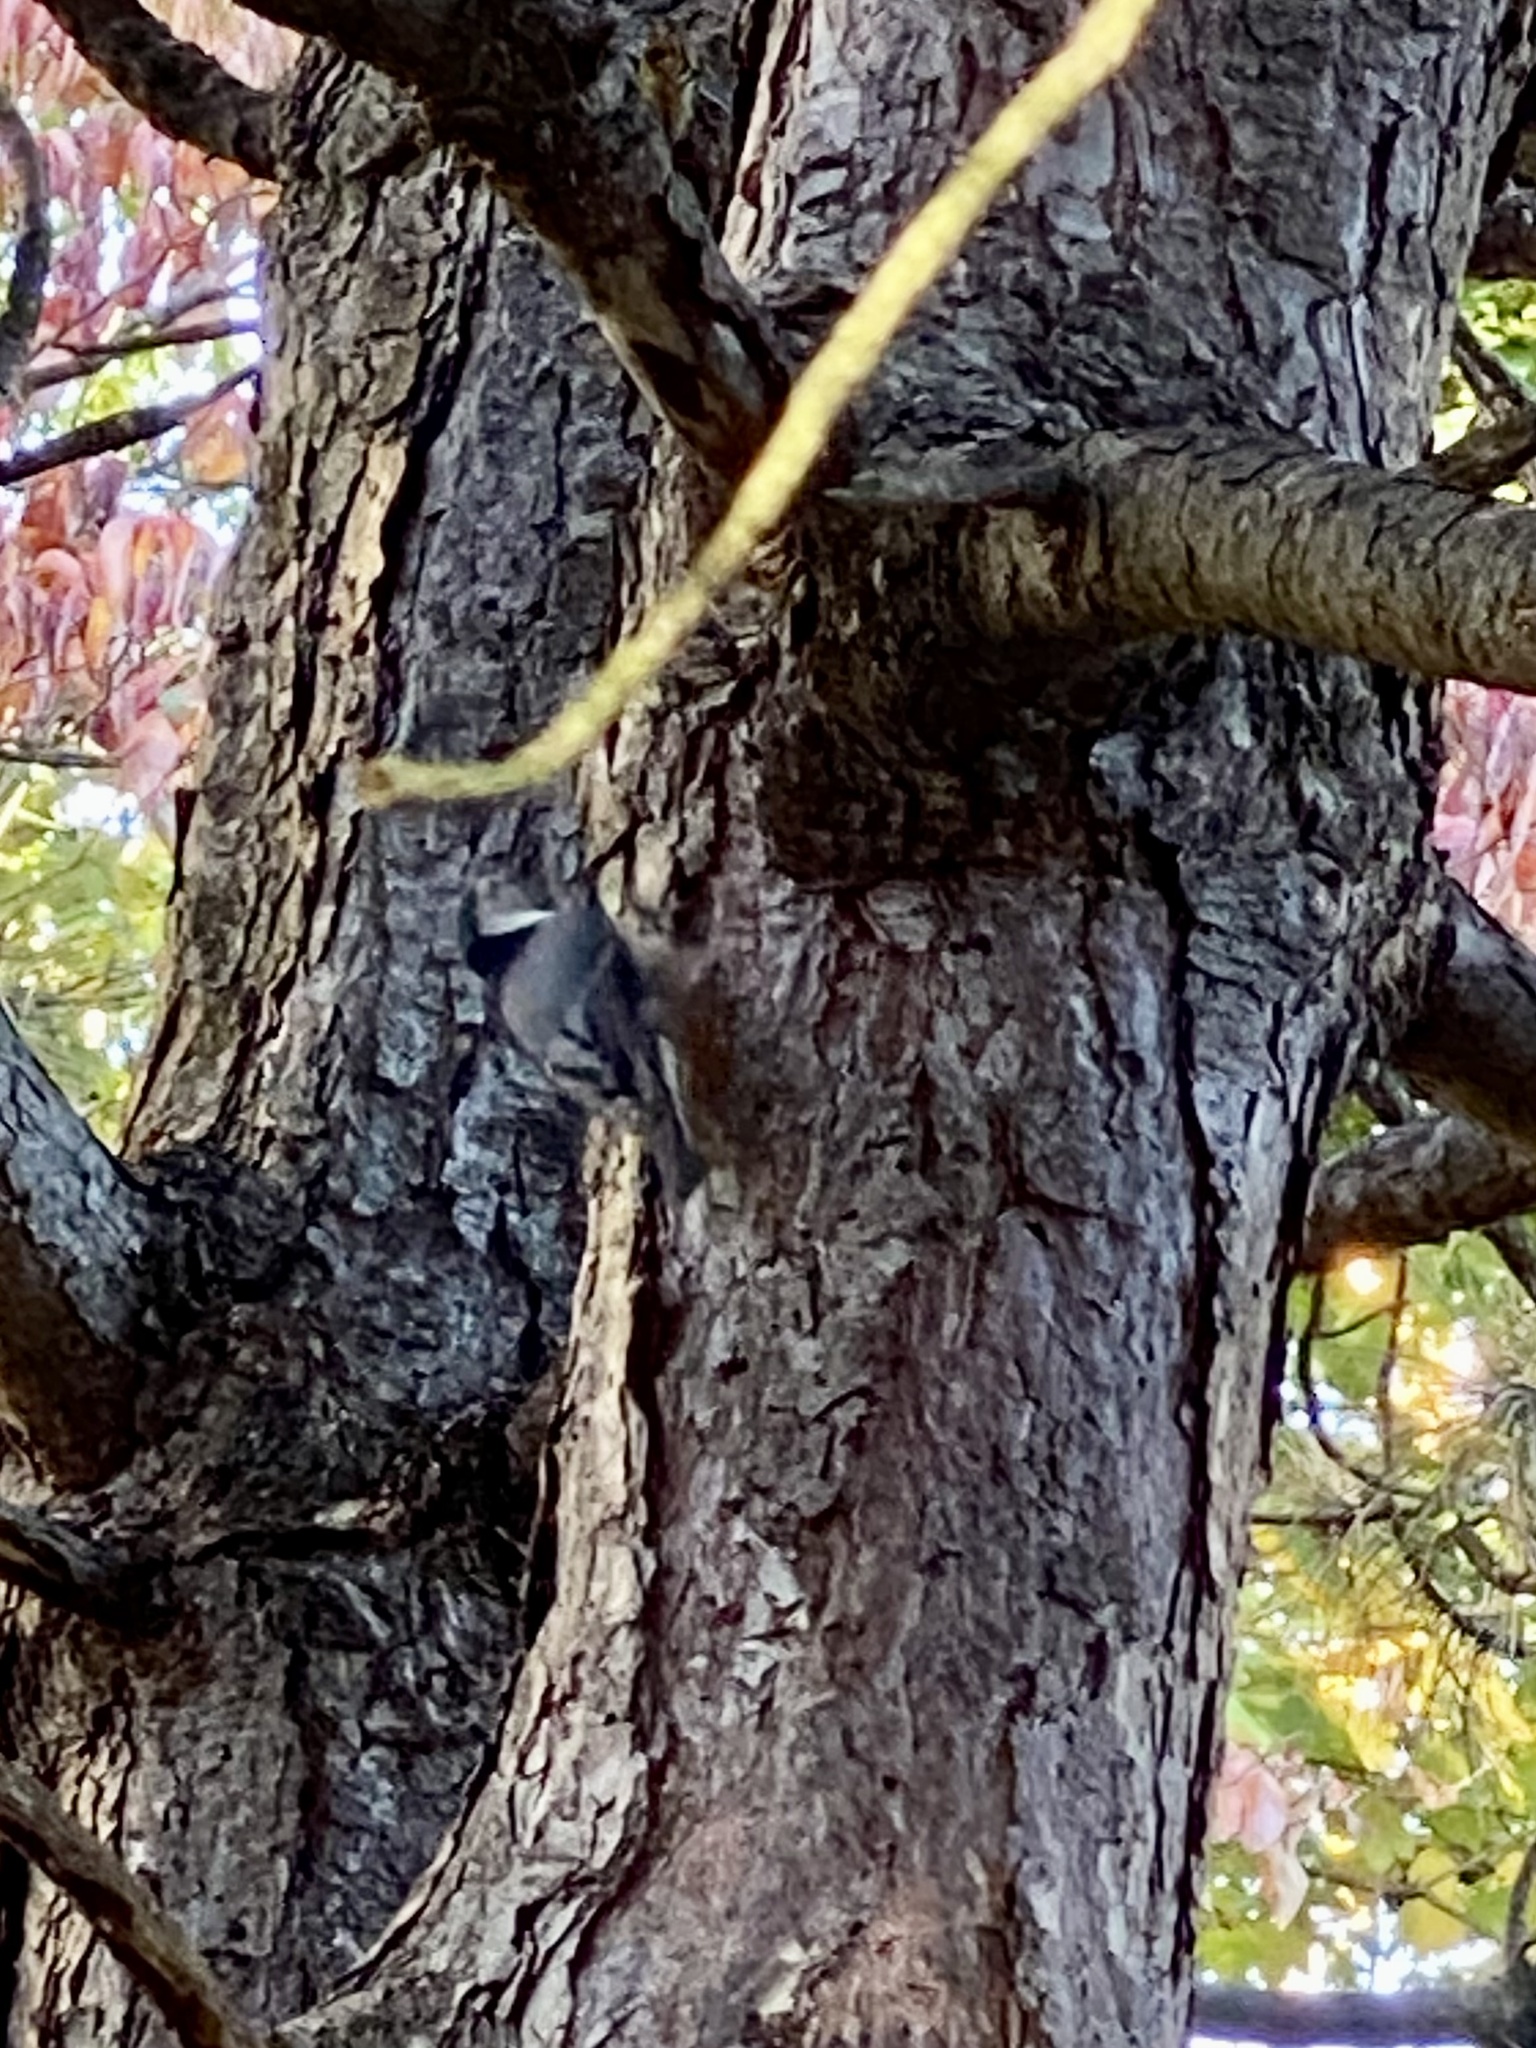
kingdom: Animalia
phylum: Chordata
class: Aves
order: Passeriformes
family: Sittidae
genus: Sitta
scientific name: Sitta carolinensis
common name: White-breasted nuthatch
